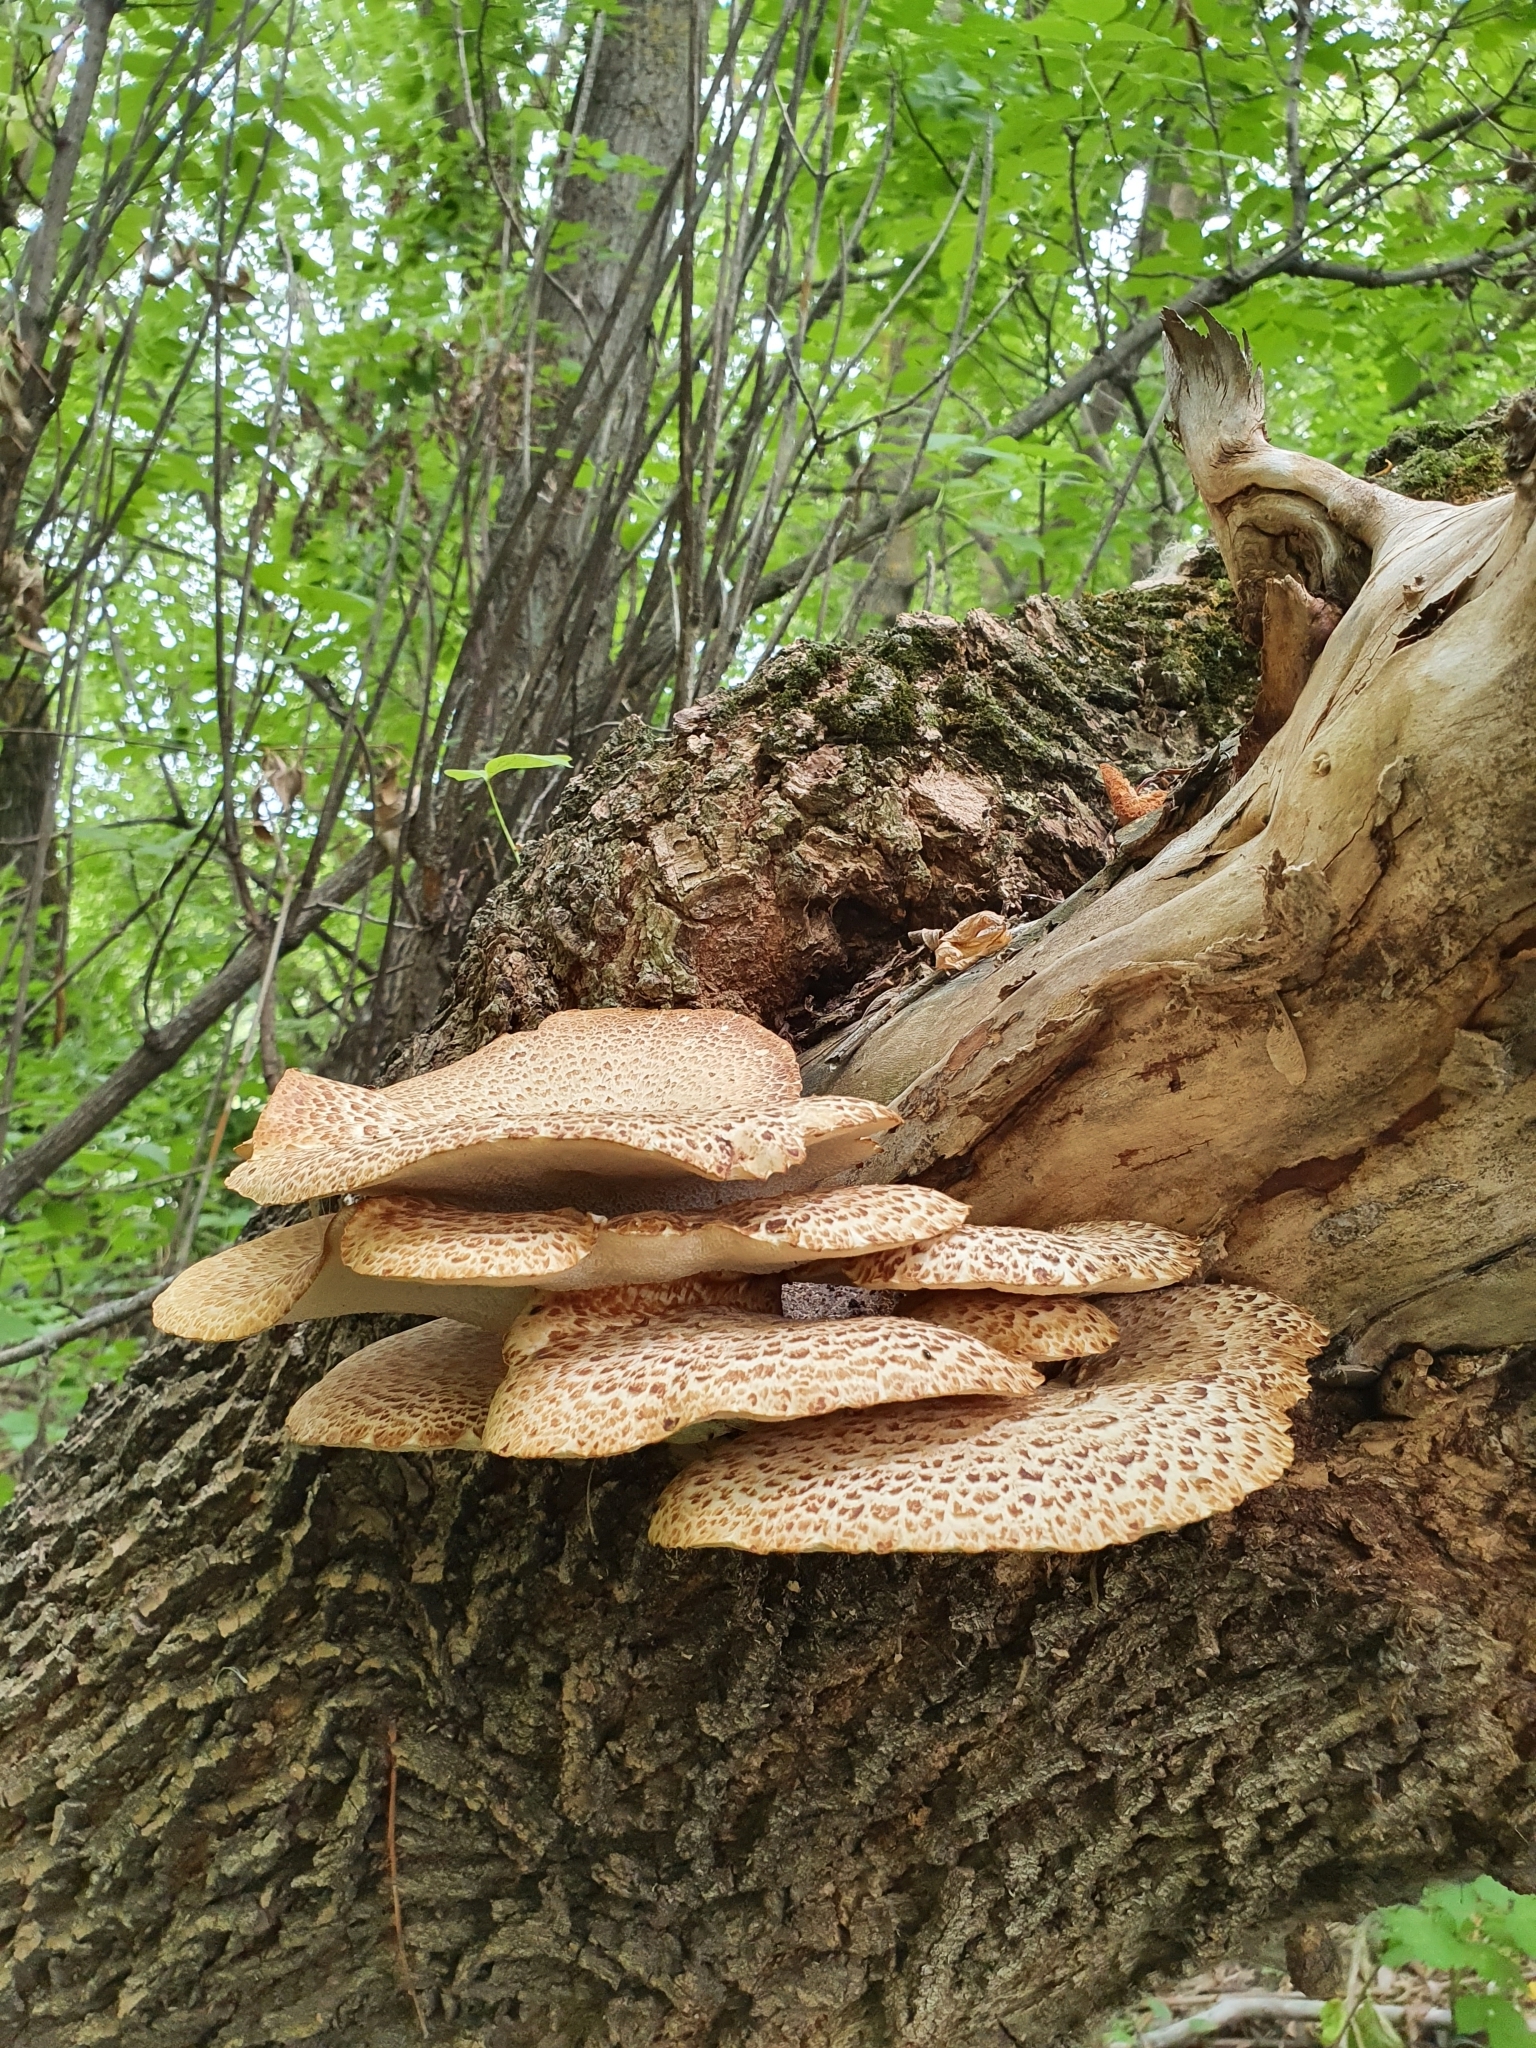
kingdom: Fungi
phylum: Basidiomycota
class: Agaricomycetes
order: Polyporales
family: Polyporaceae
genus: Cerioporus
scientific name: Cerioporus squamosus
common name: Dryad's saddle
